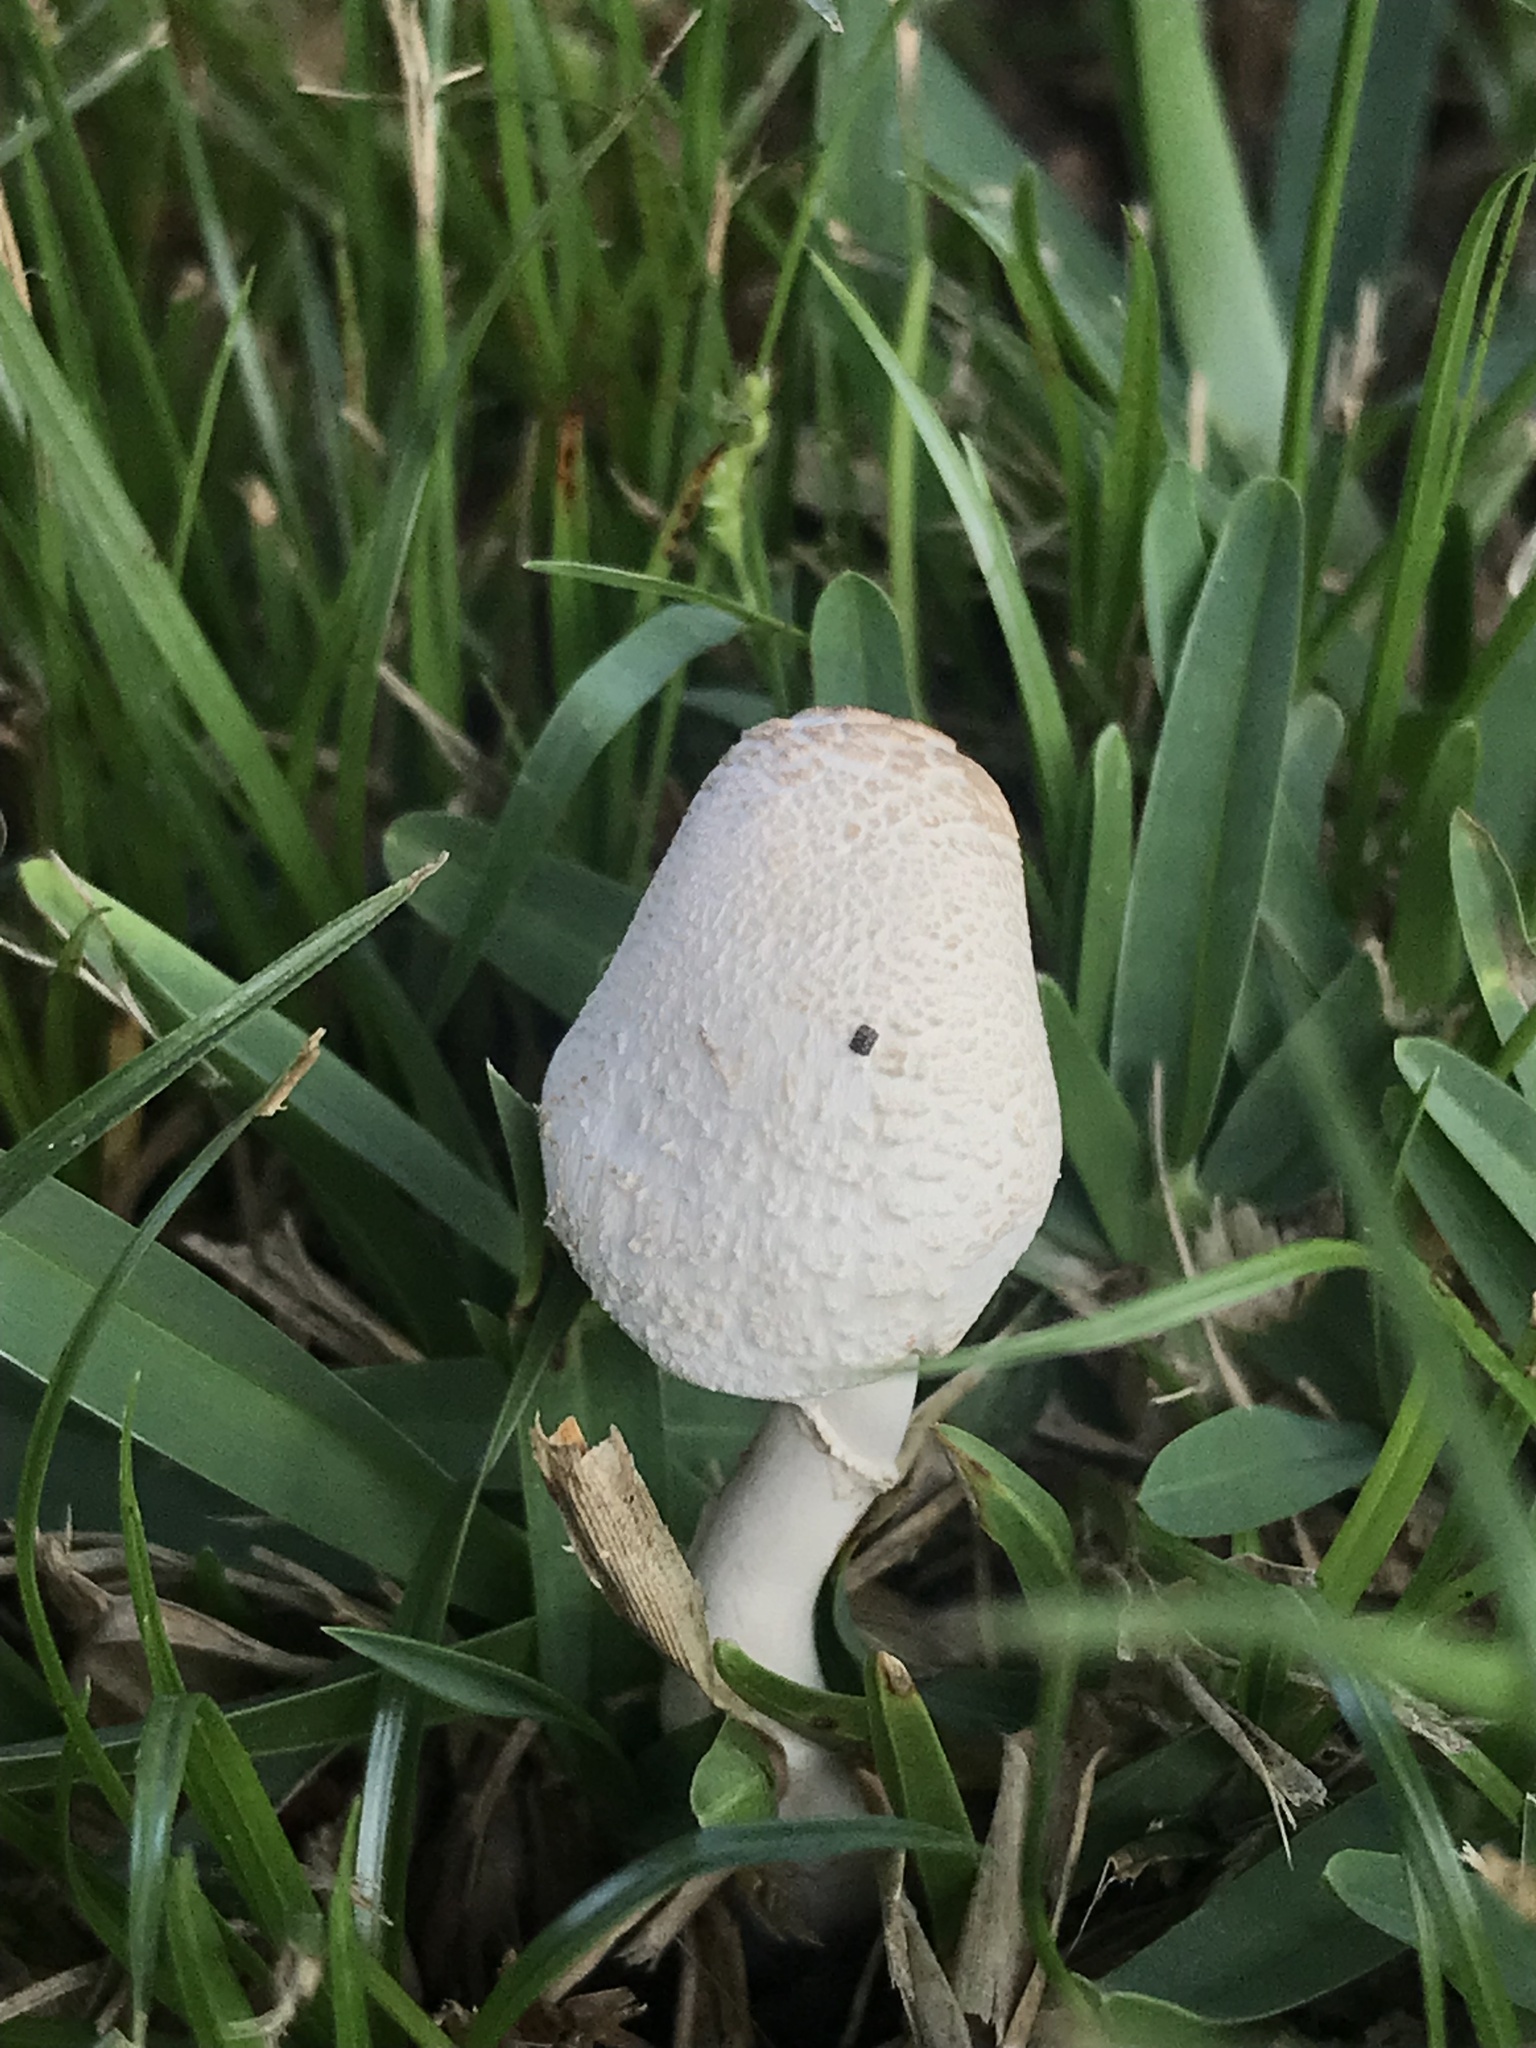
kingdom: Fungi
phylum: Basidiomycota
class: Agaricomycetes
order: Agaricales
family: Agaricaceae
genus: Leucocoprinus
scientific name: Leucocoprinus cepistipes
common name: Onion-stalk parasol
